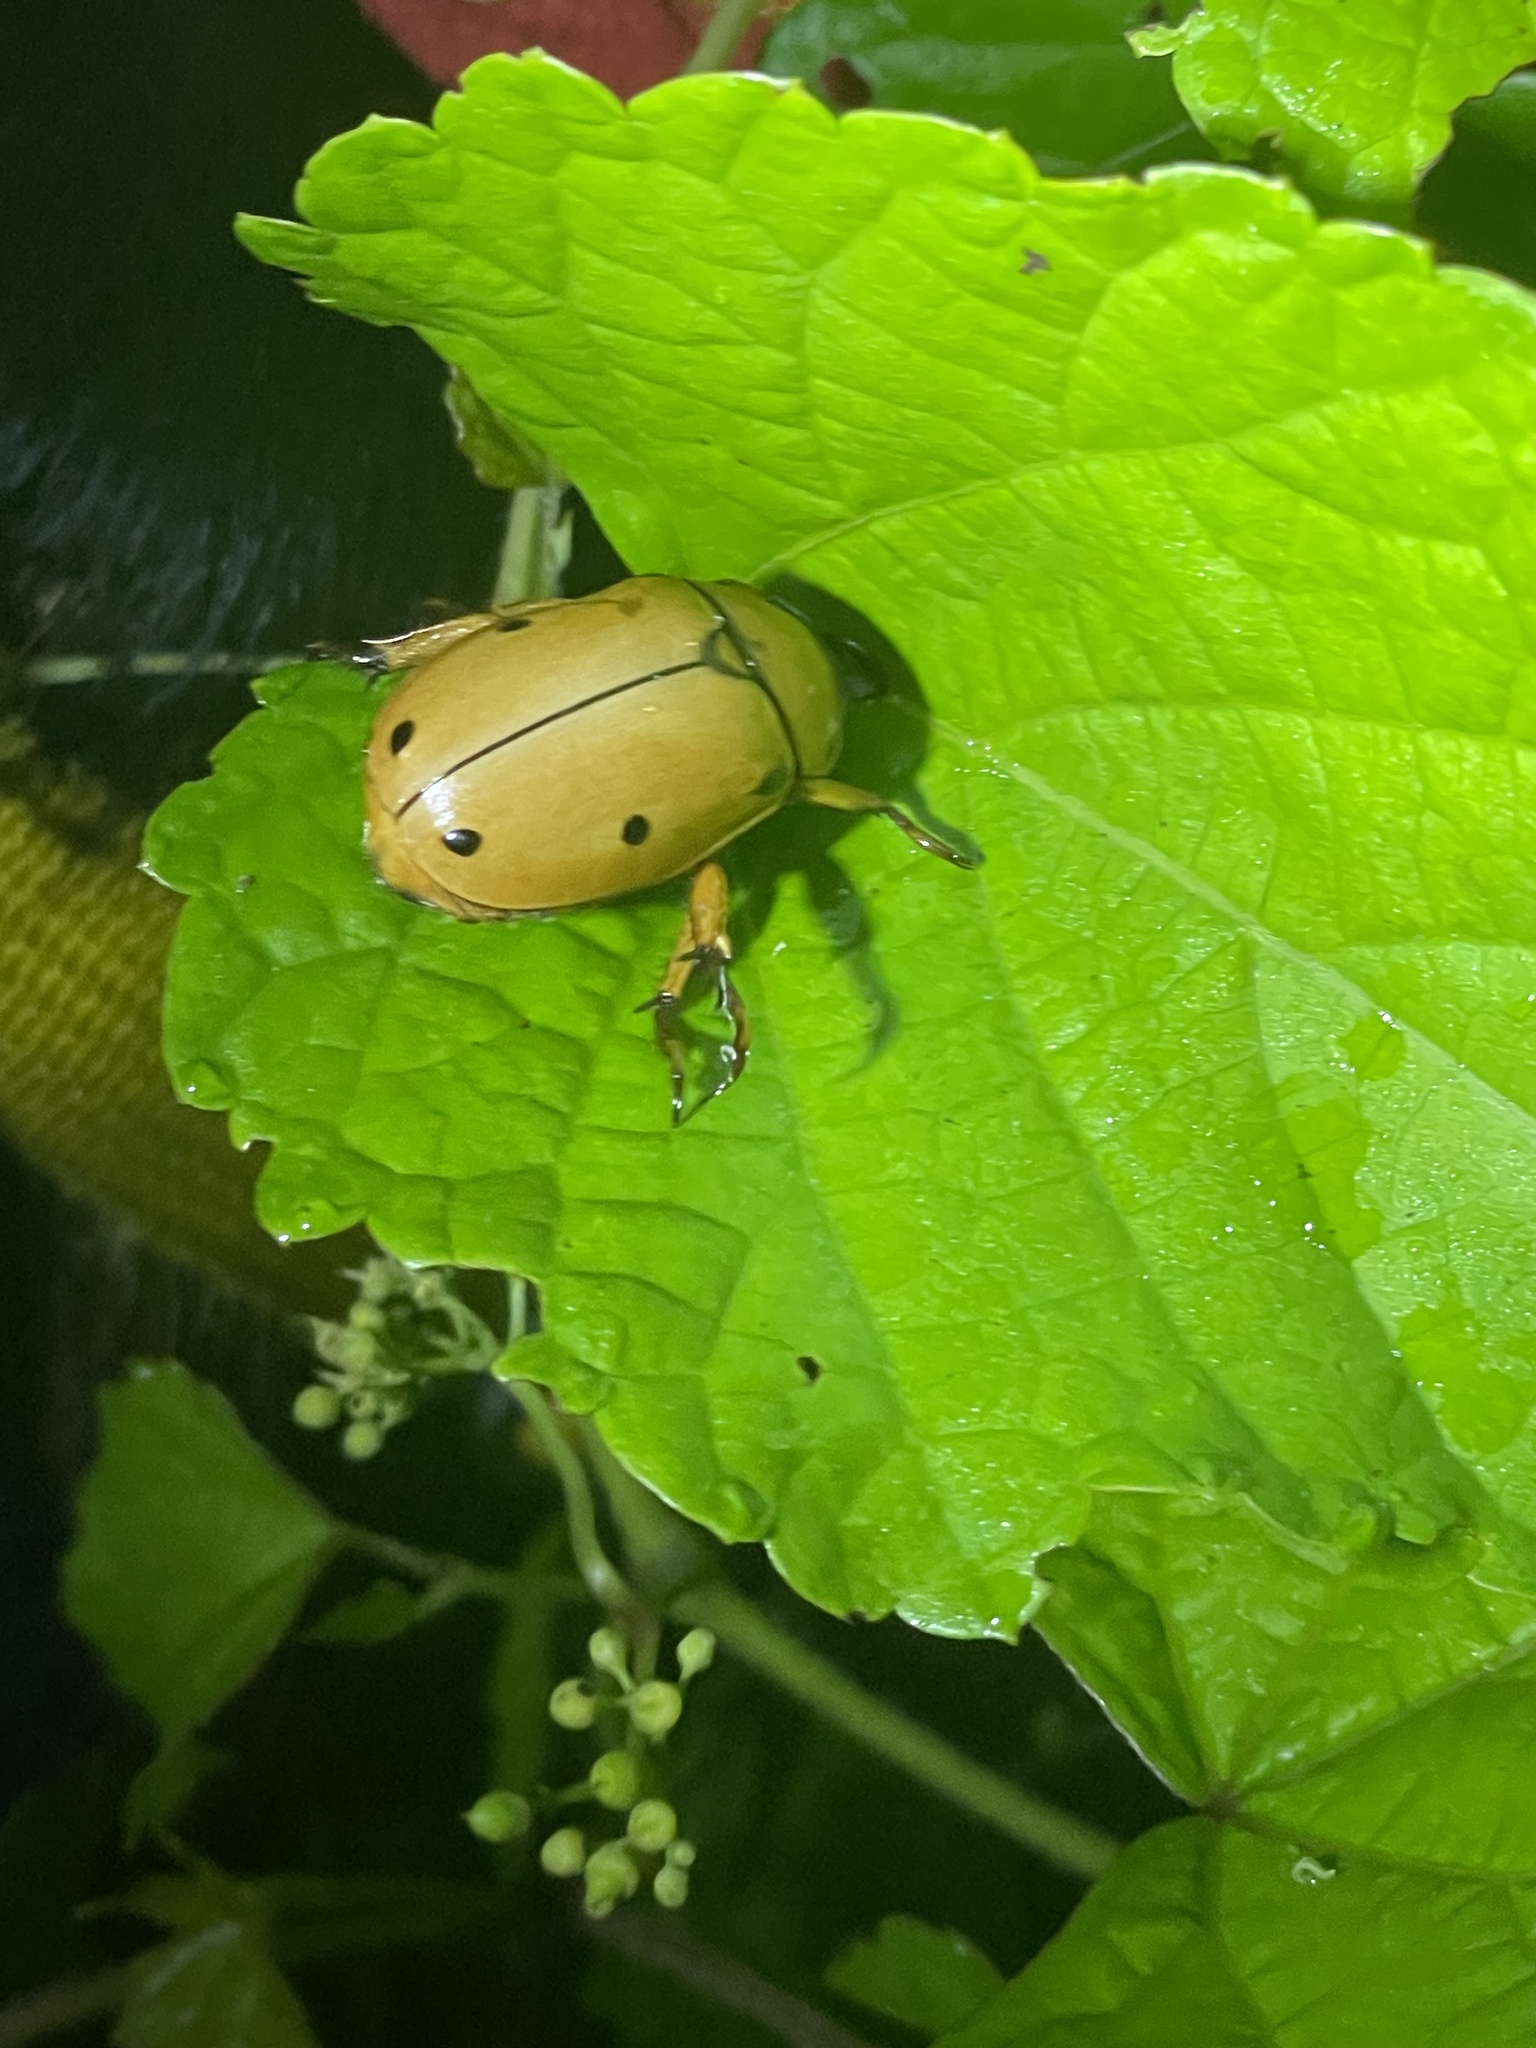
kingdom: Animalia
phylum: Arthropoda
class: Insecta
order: Coleoptera
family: Scarabaeidae
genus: Pelidnota
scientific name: Pelidnota punctata
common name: Grapevine beetle
